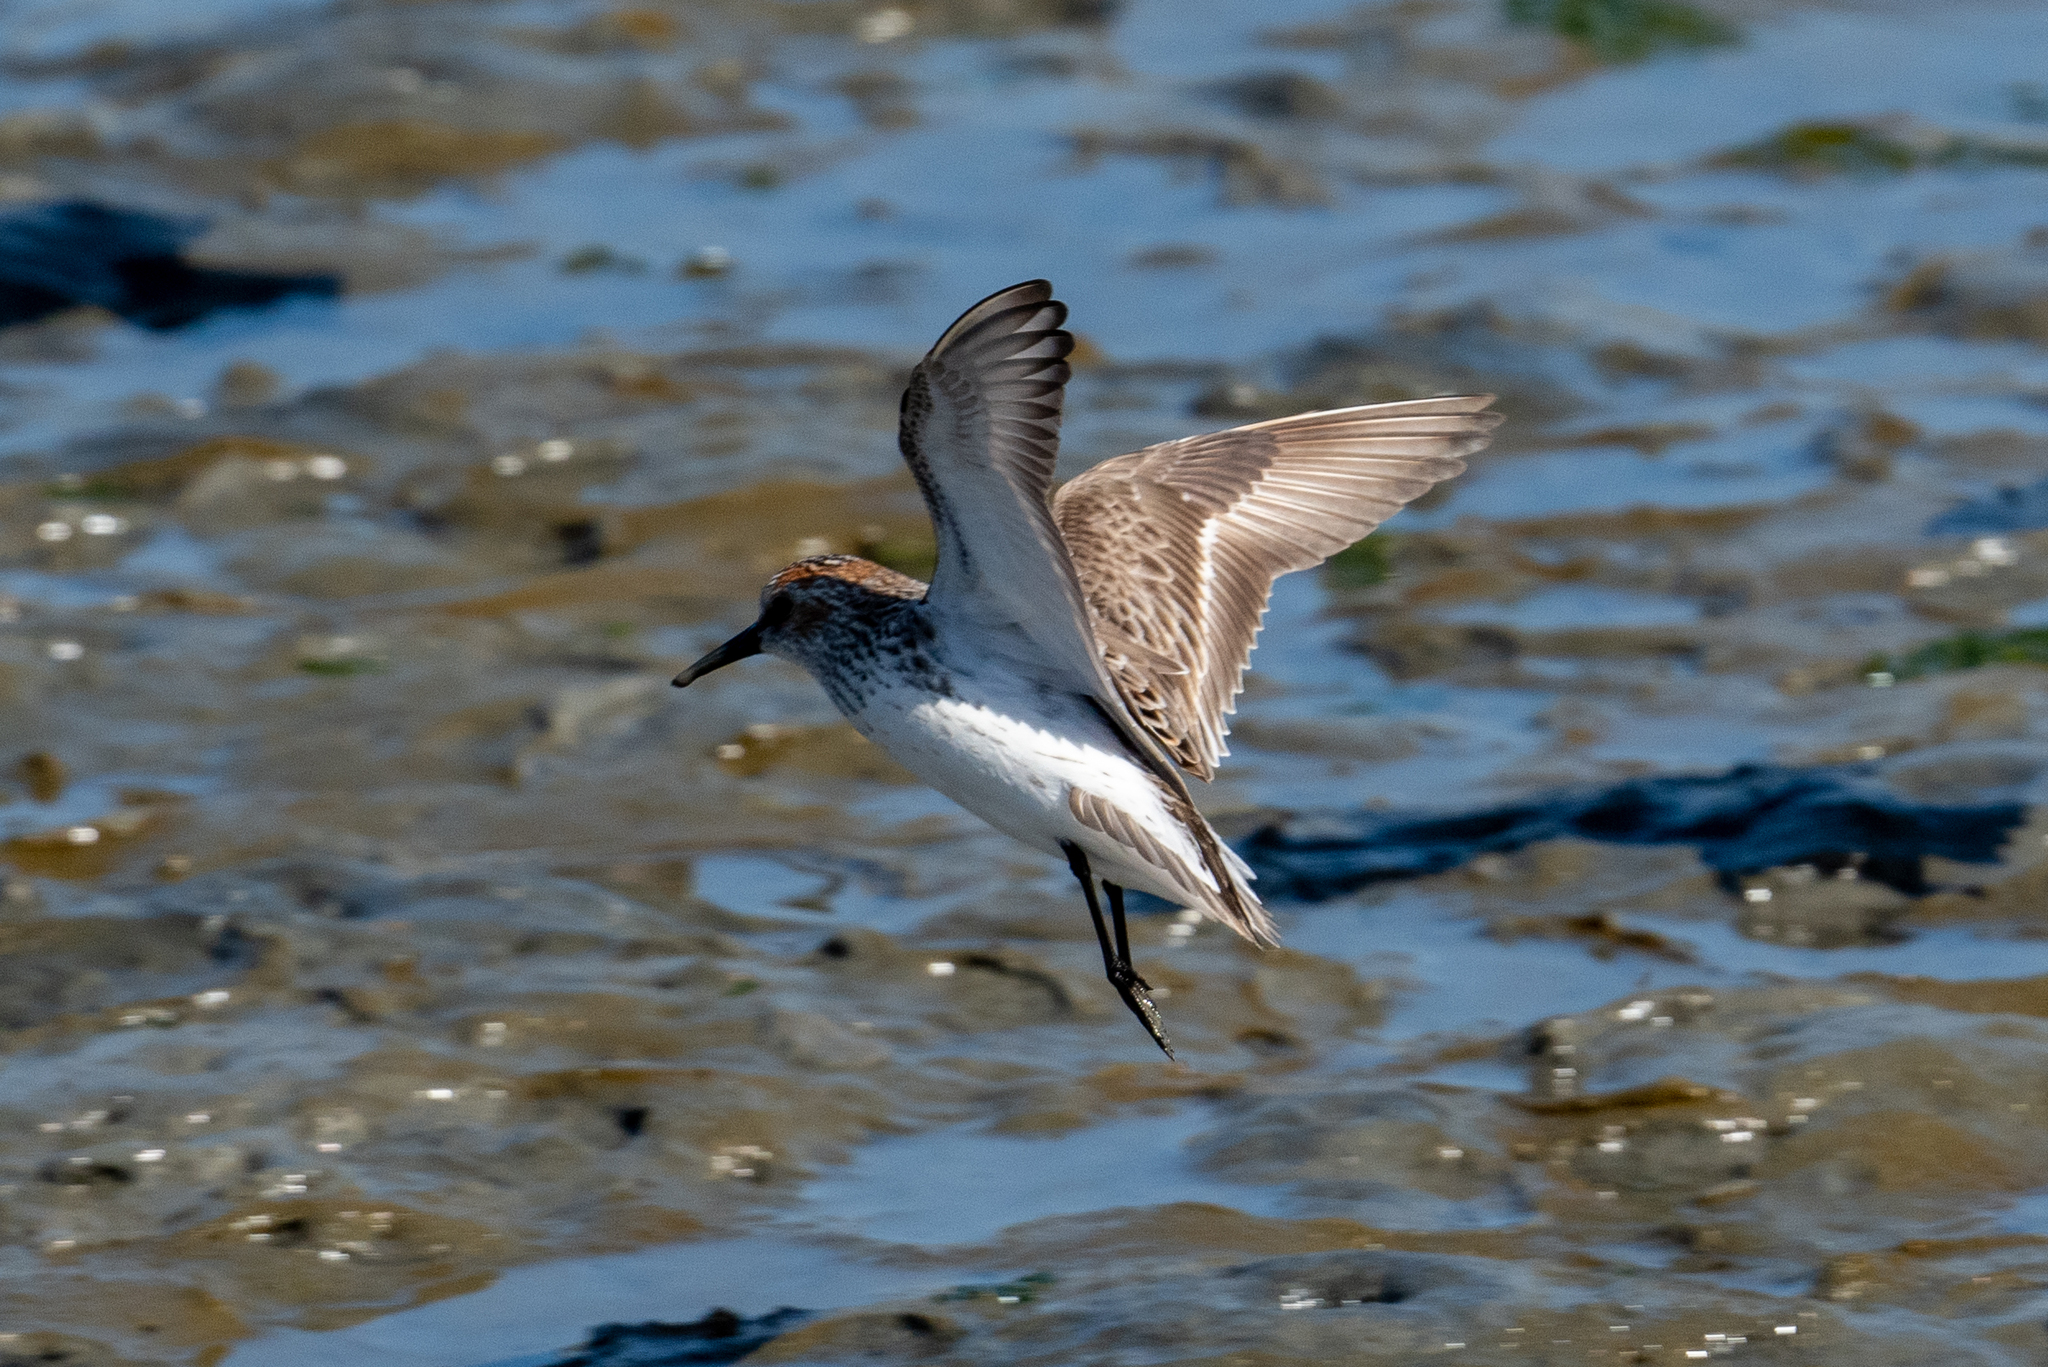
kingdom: Animalia
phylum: Chordata
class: Aves
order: Charadriiformes
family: Scolopacidae
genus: Calidris
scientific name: Calidris mauri
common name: Western sandpiper
